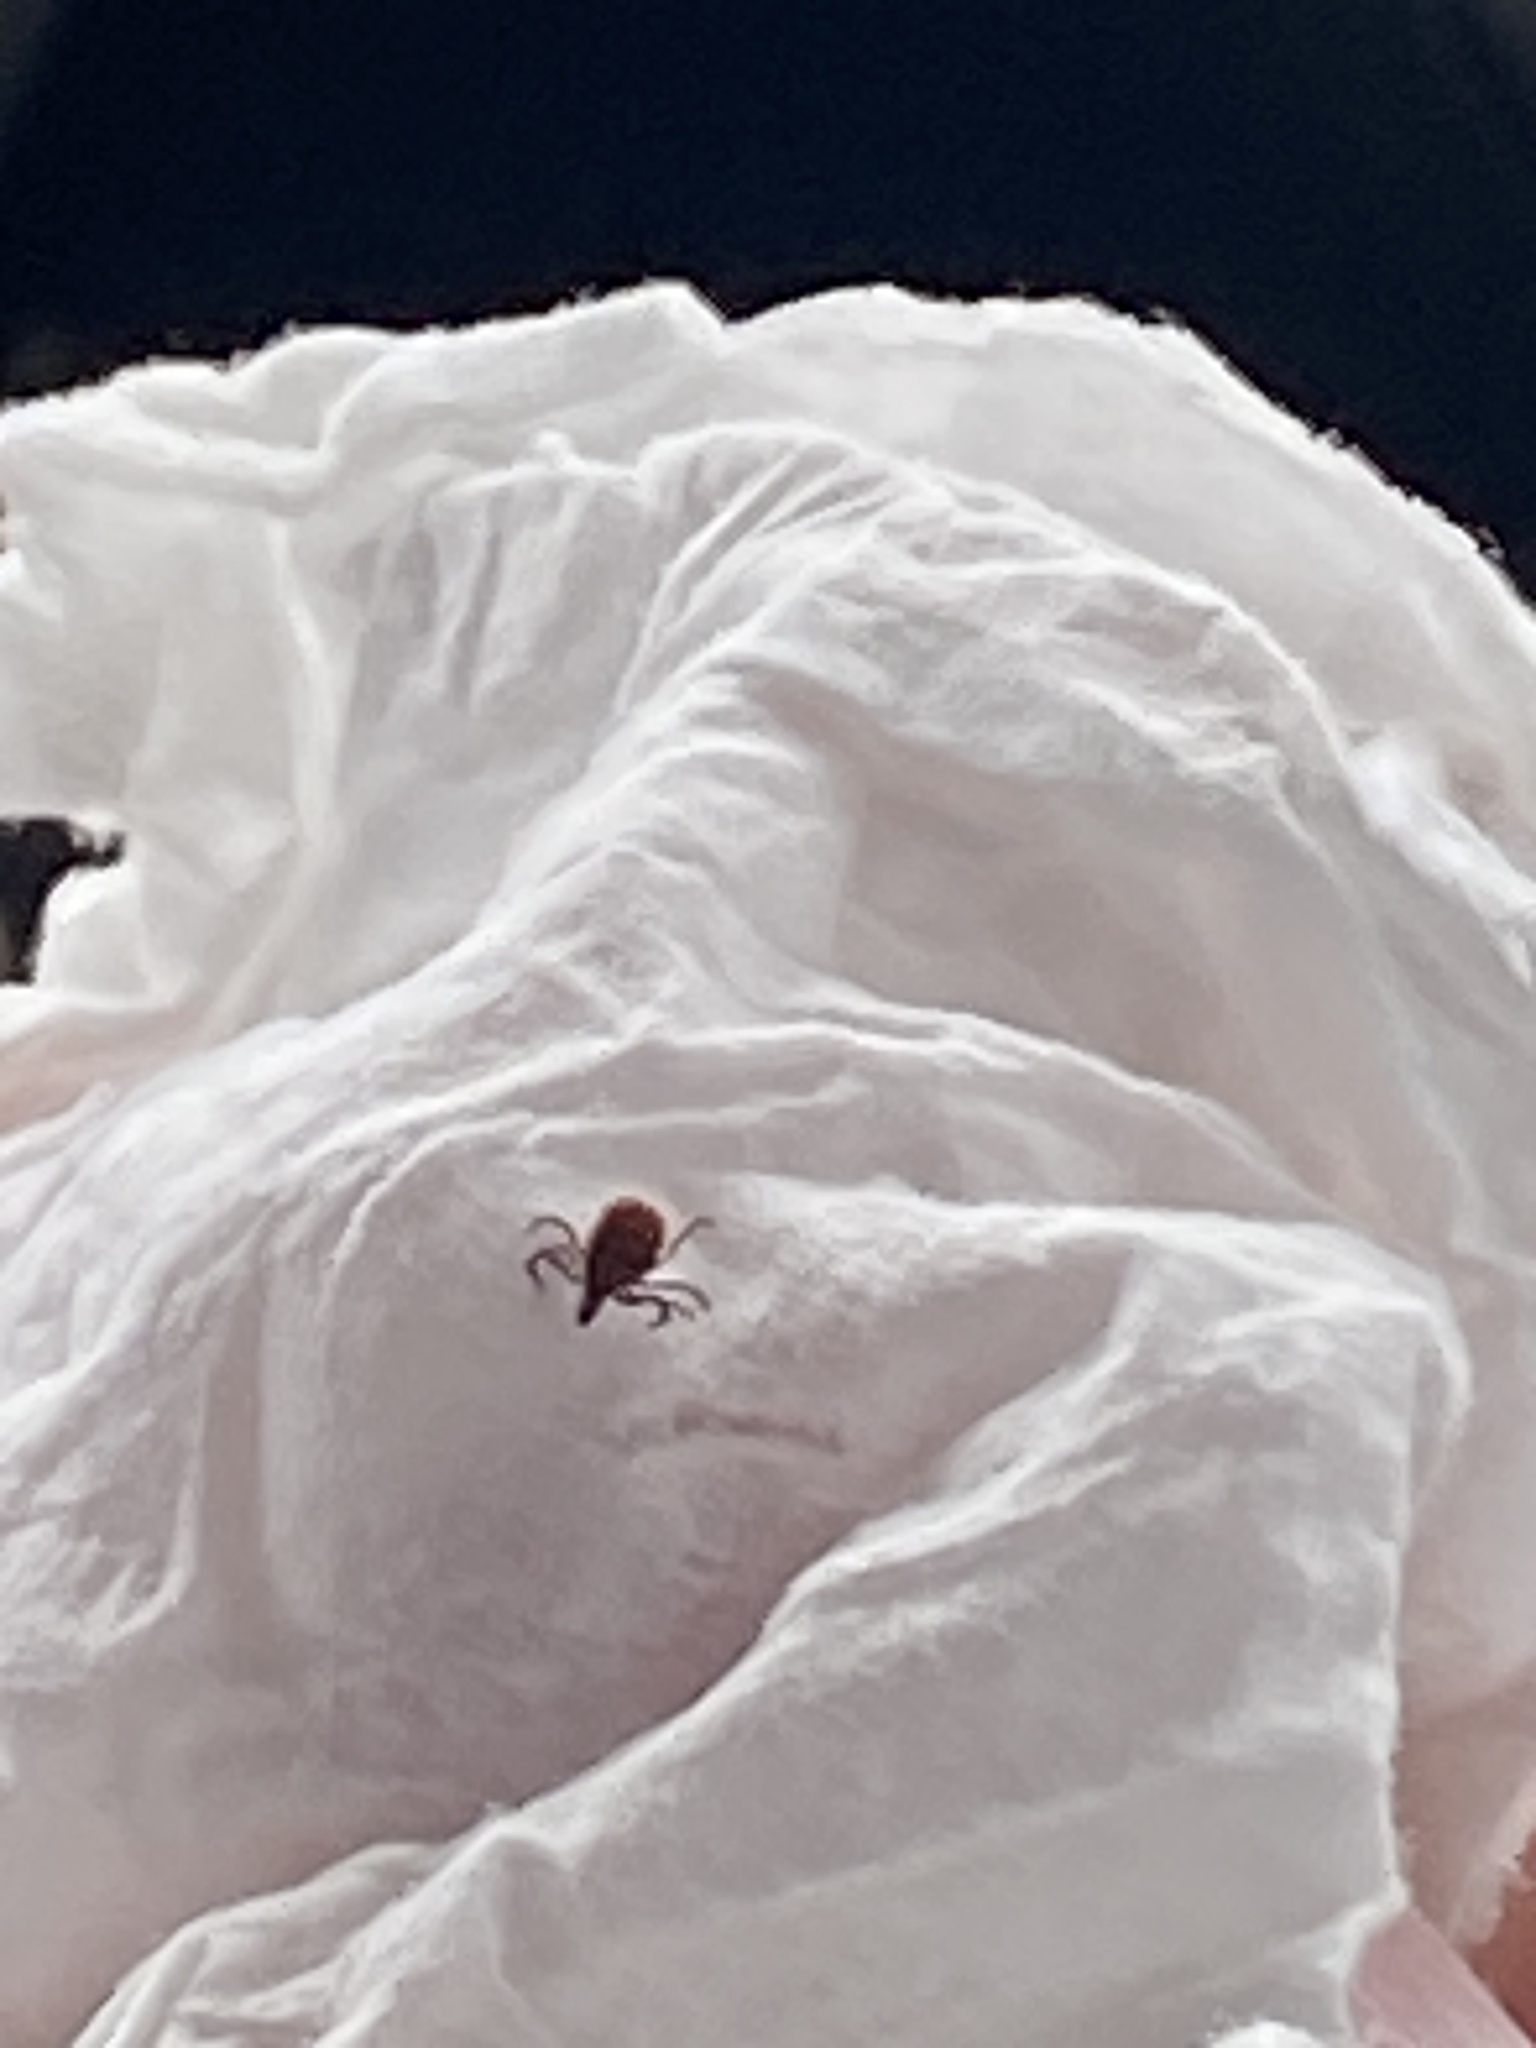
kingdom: Animalia
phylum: Arthropoda
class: Arachnida
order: Ixodida
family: Ixodidae
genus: Ixodes
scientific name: Ixodes scapularis
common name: Black legged tick
